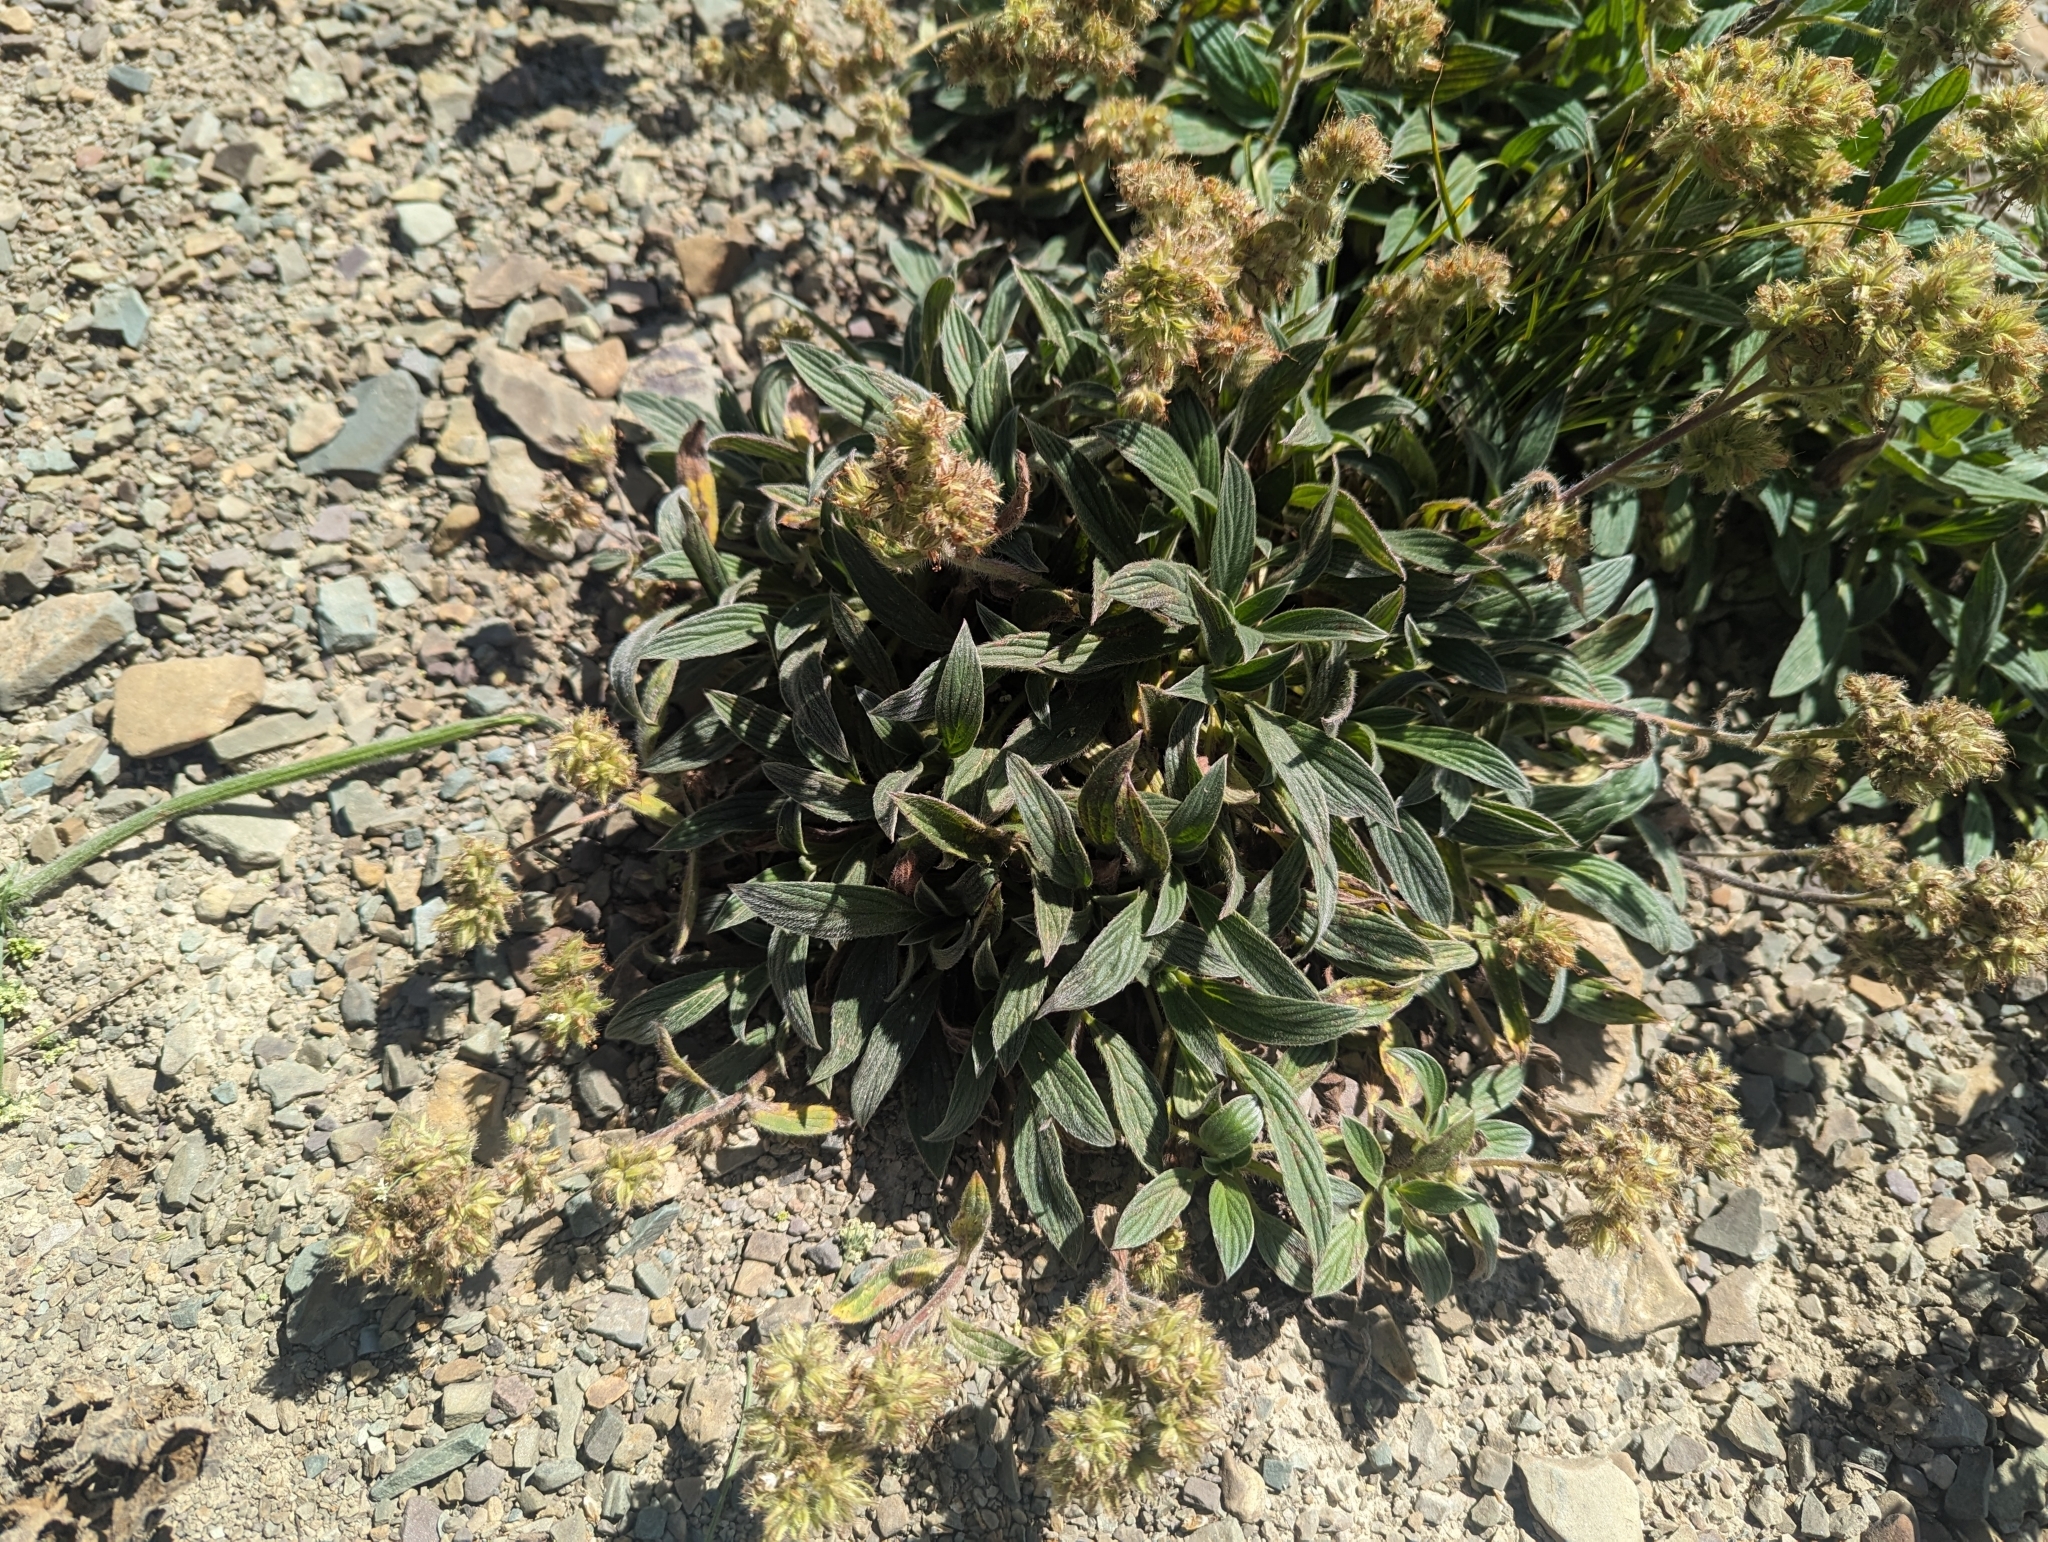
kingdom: Plantae
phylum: Tracheophyta
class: Magnoliopsida
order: Boraginales
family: Hydrophyllaceae
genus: Phacelia
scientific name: Phacelia hastata
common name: Silver-leaved phacelia
